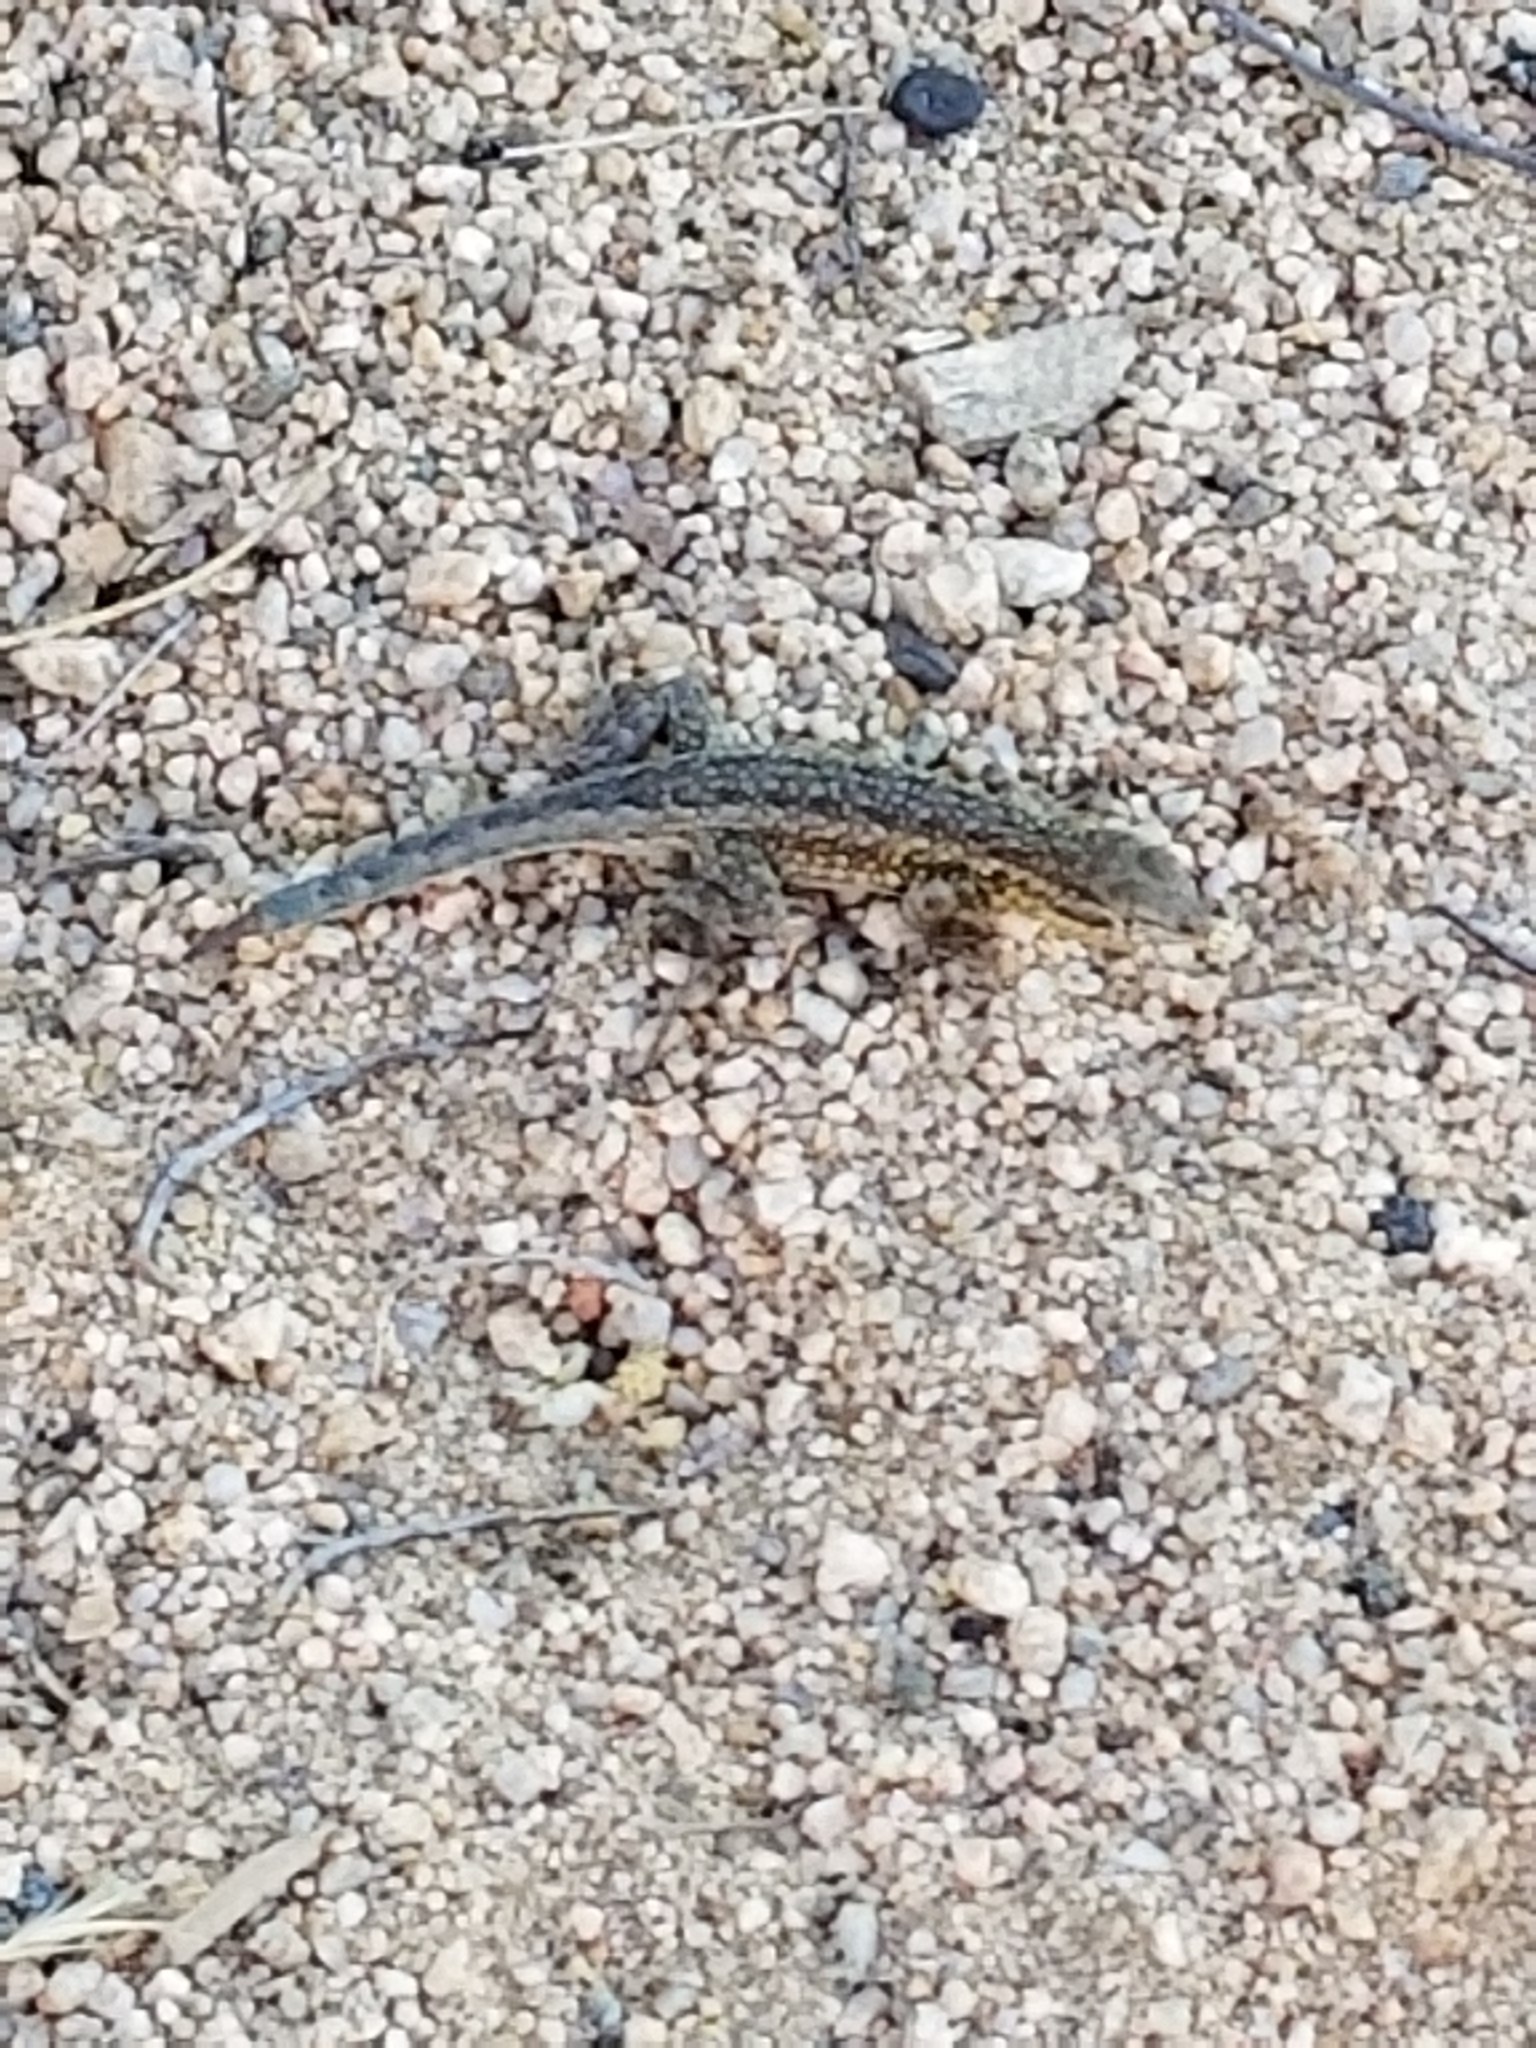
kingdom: Animalia
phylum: Chordata
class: Squamata
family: Phrynosomatidae
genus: Uta
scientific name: Uta stansburiana
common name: Side-blotched lizard
